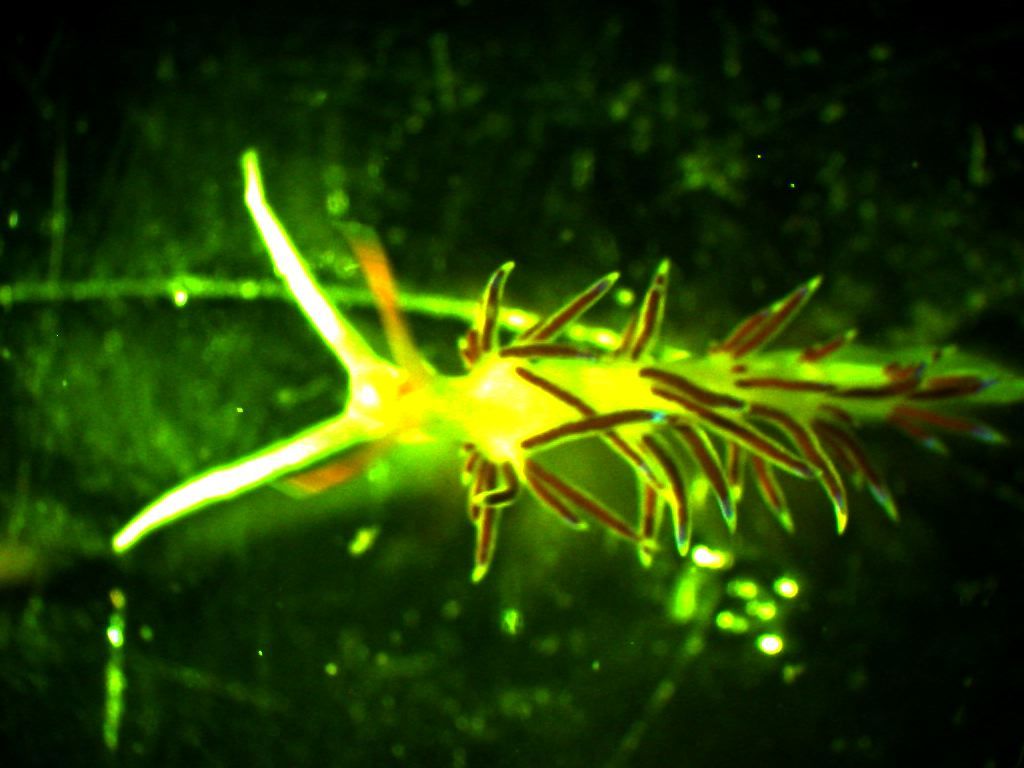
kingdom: Animalia
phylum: Mollusca
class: Gastropoda
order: Nudibranchia
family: Facelinidae
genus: Cratena
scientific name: Cratena peregrina
